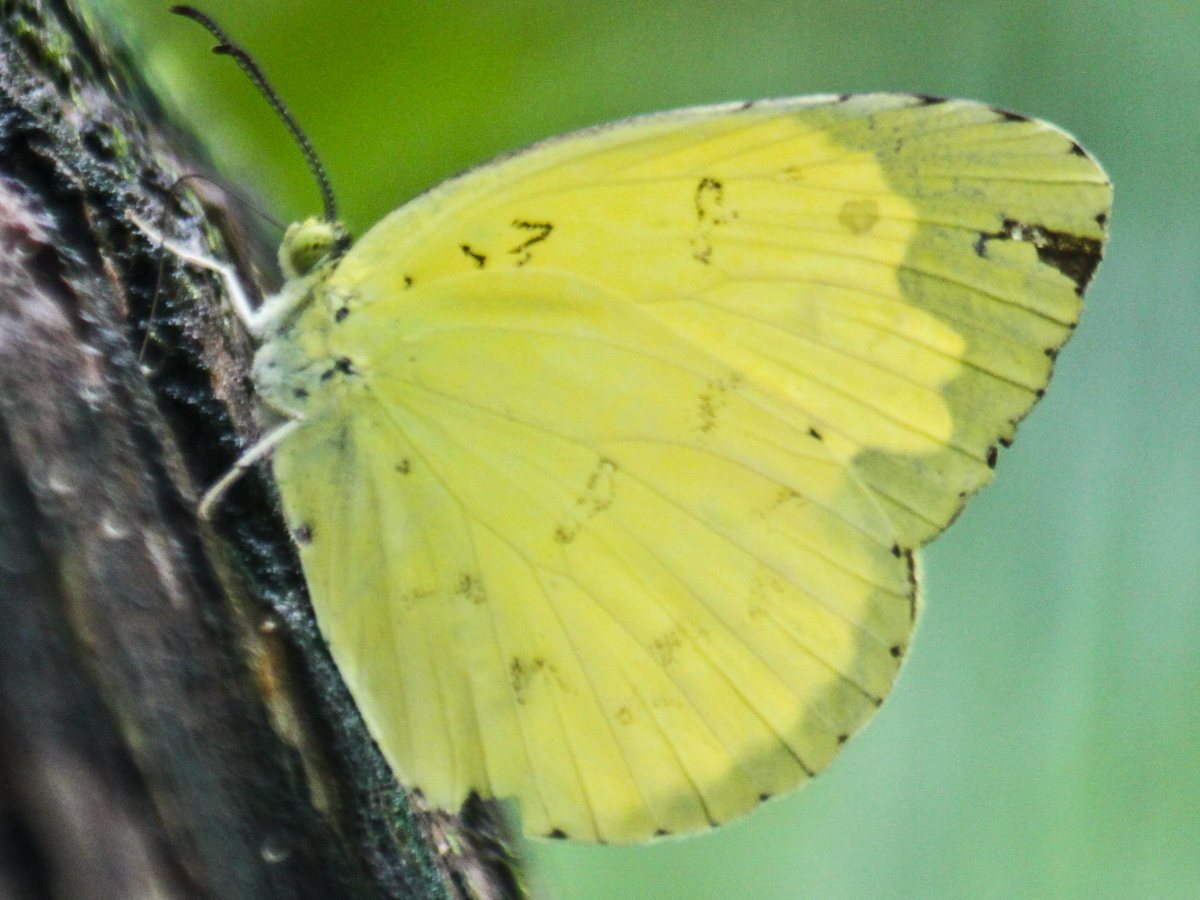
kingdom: Animalia
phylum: Arthropoda
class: Insecta
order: Lepidoptera
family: Pieridae
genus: Eurema
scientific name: Eurema blanda
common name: Three-spot grass yellow
